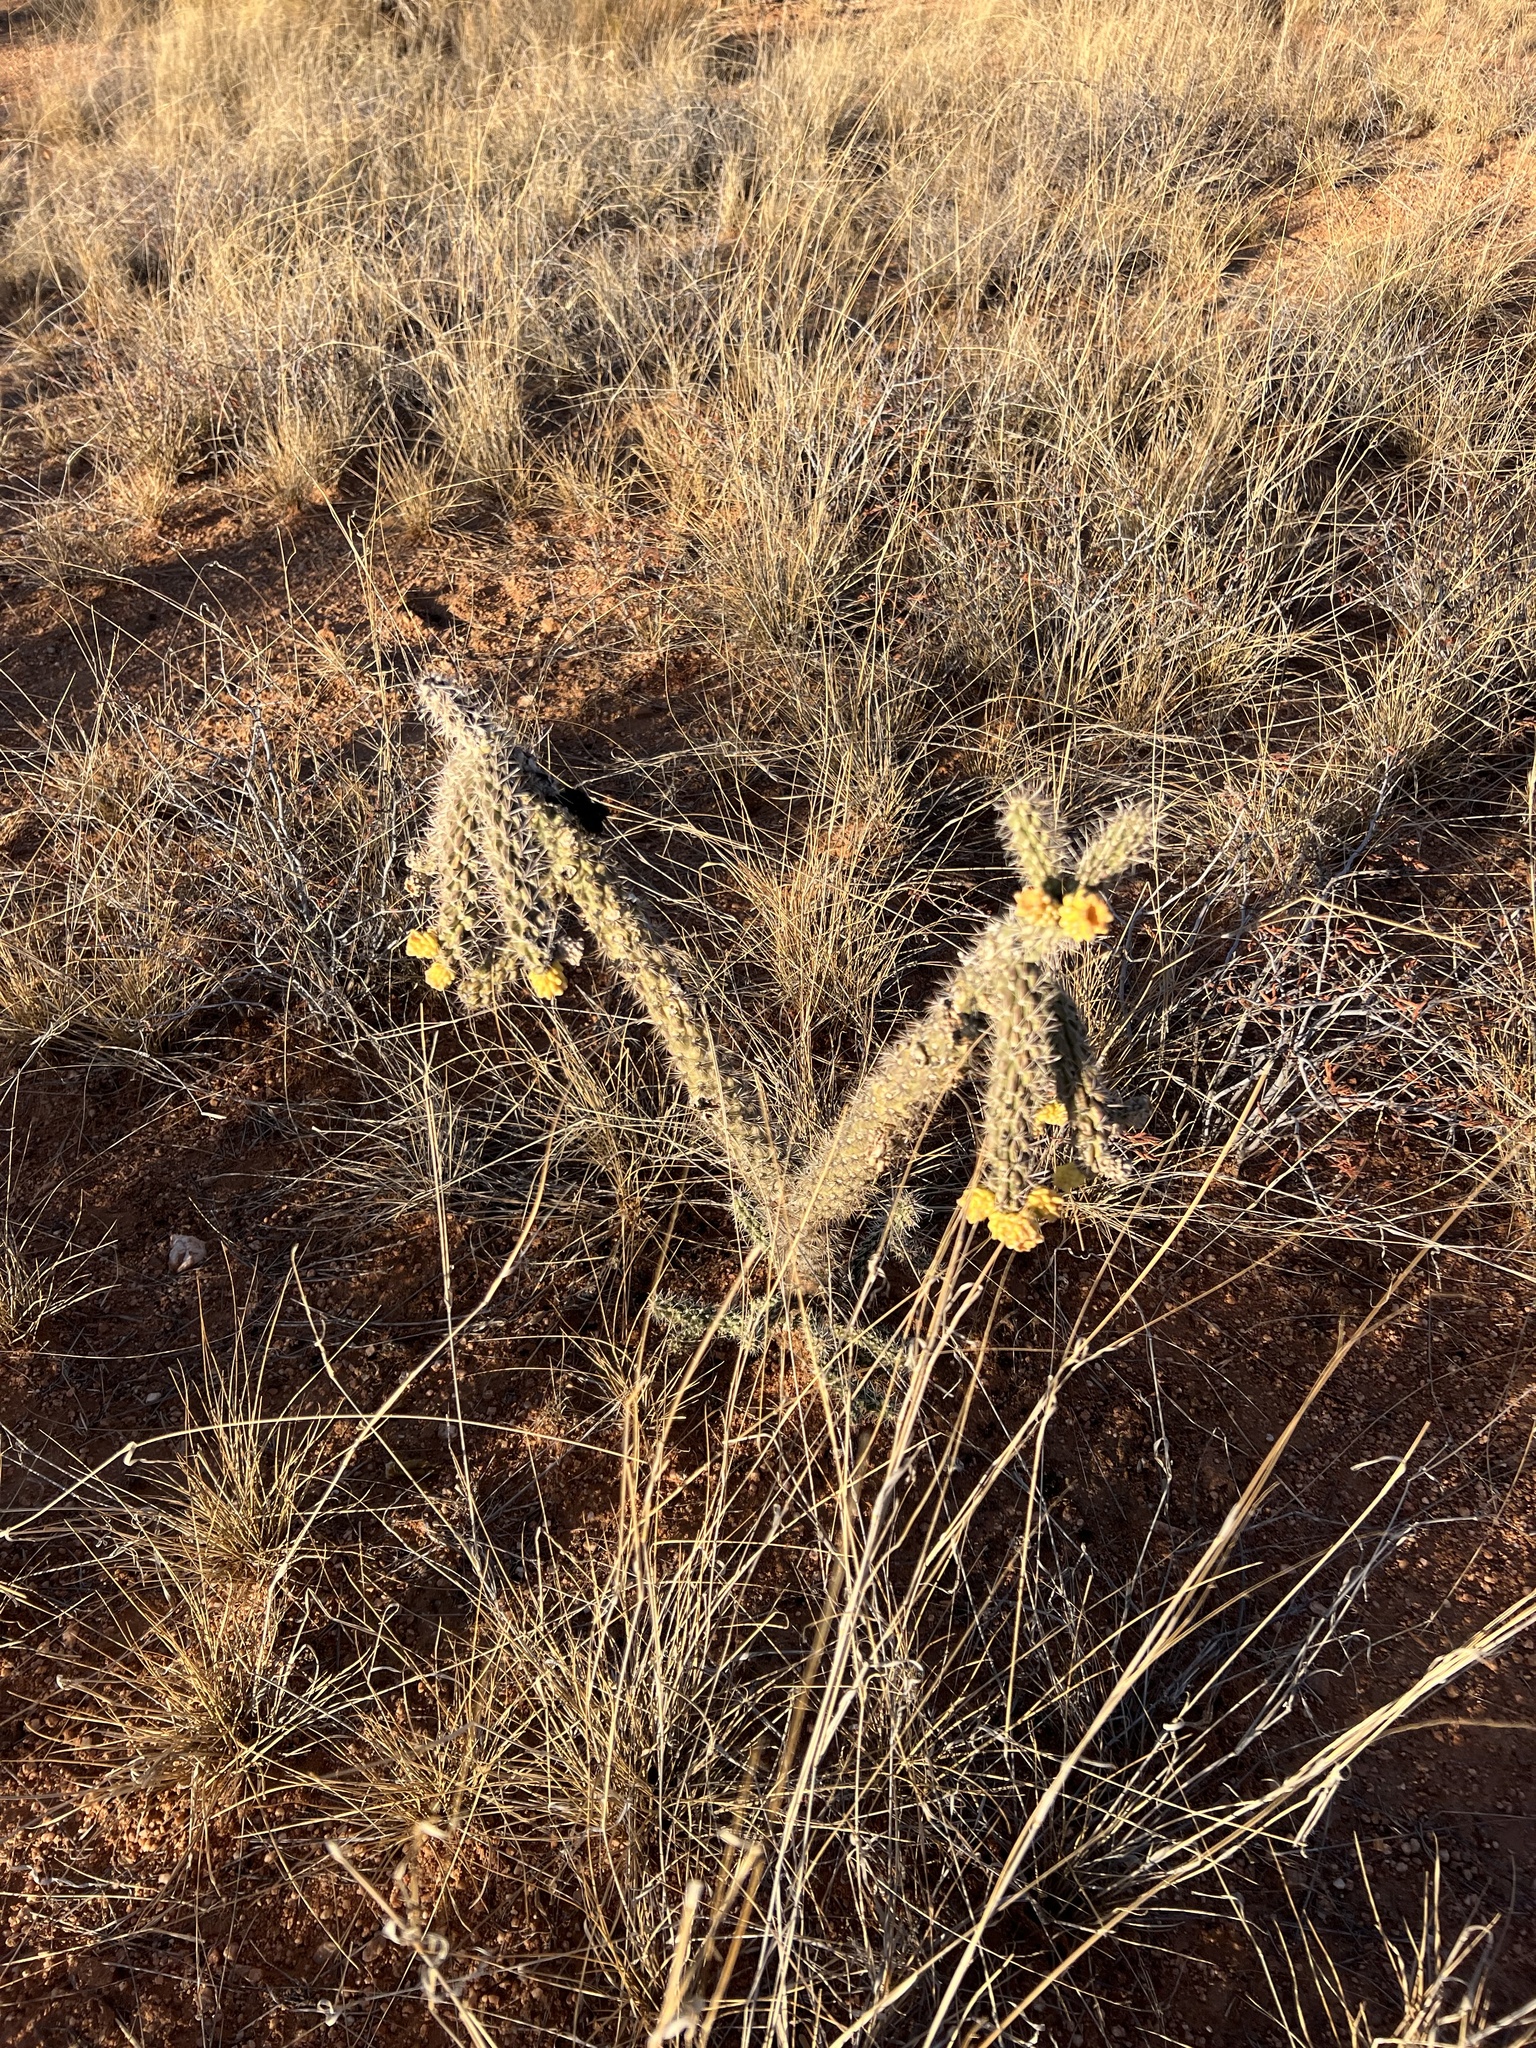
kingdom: Plantae
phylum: Tracheophyta
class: Magnoliopsida
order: Caryophyllales
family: Cactaceae
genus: Cylindropuntia
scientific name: Cylindropuntia imbricata
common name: Candelabrum cactus
